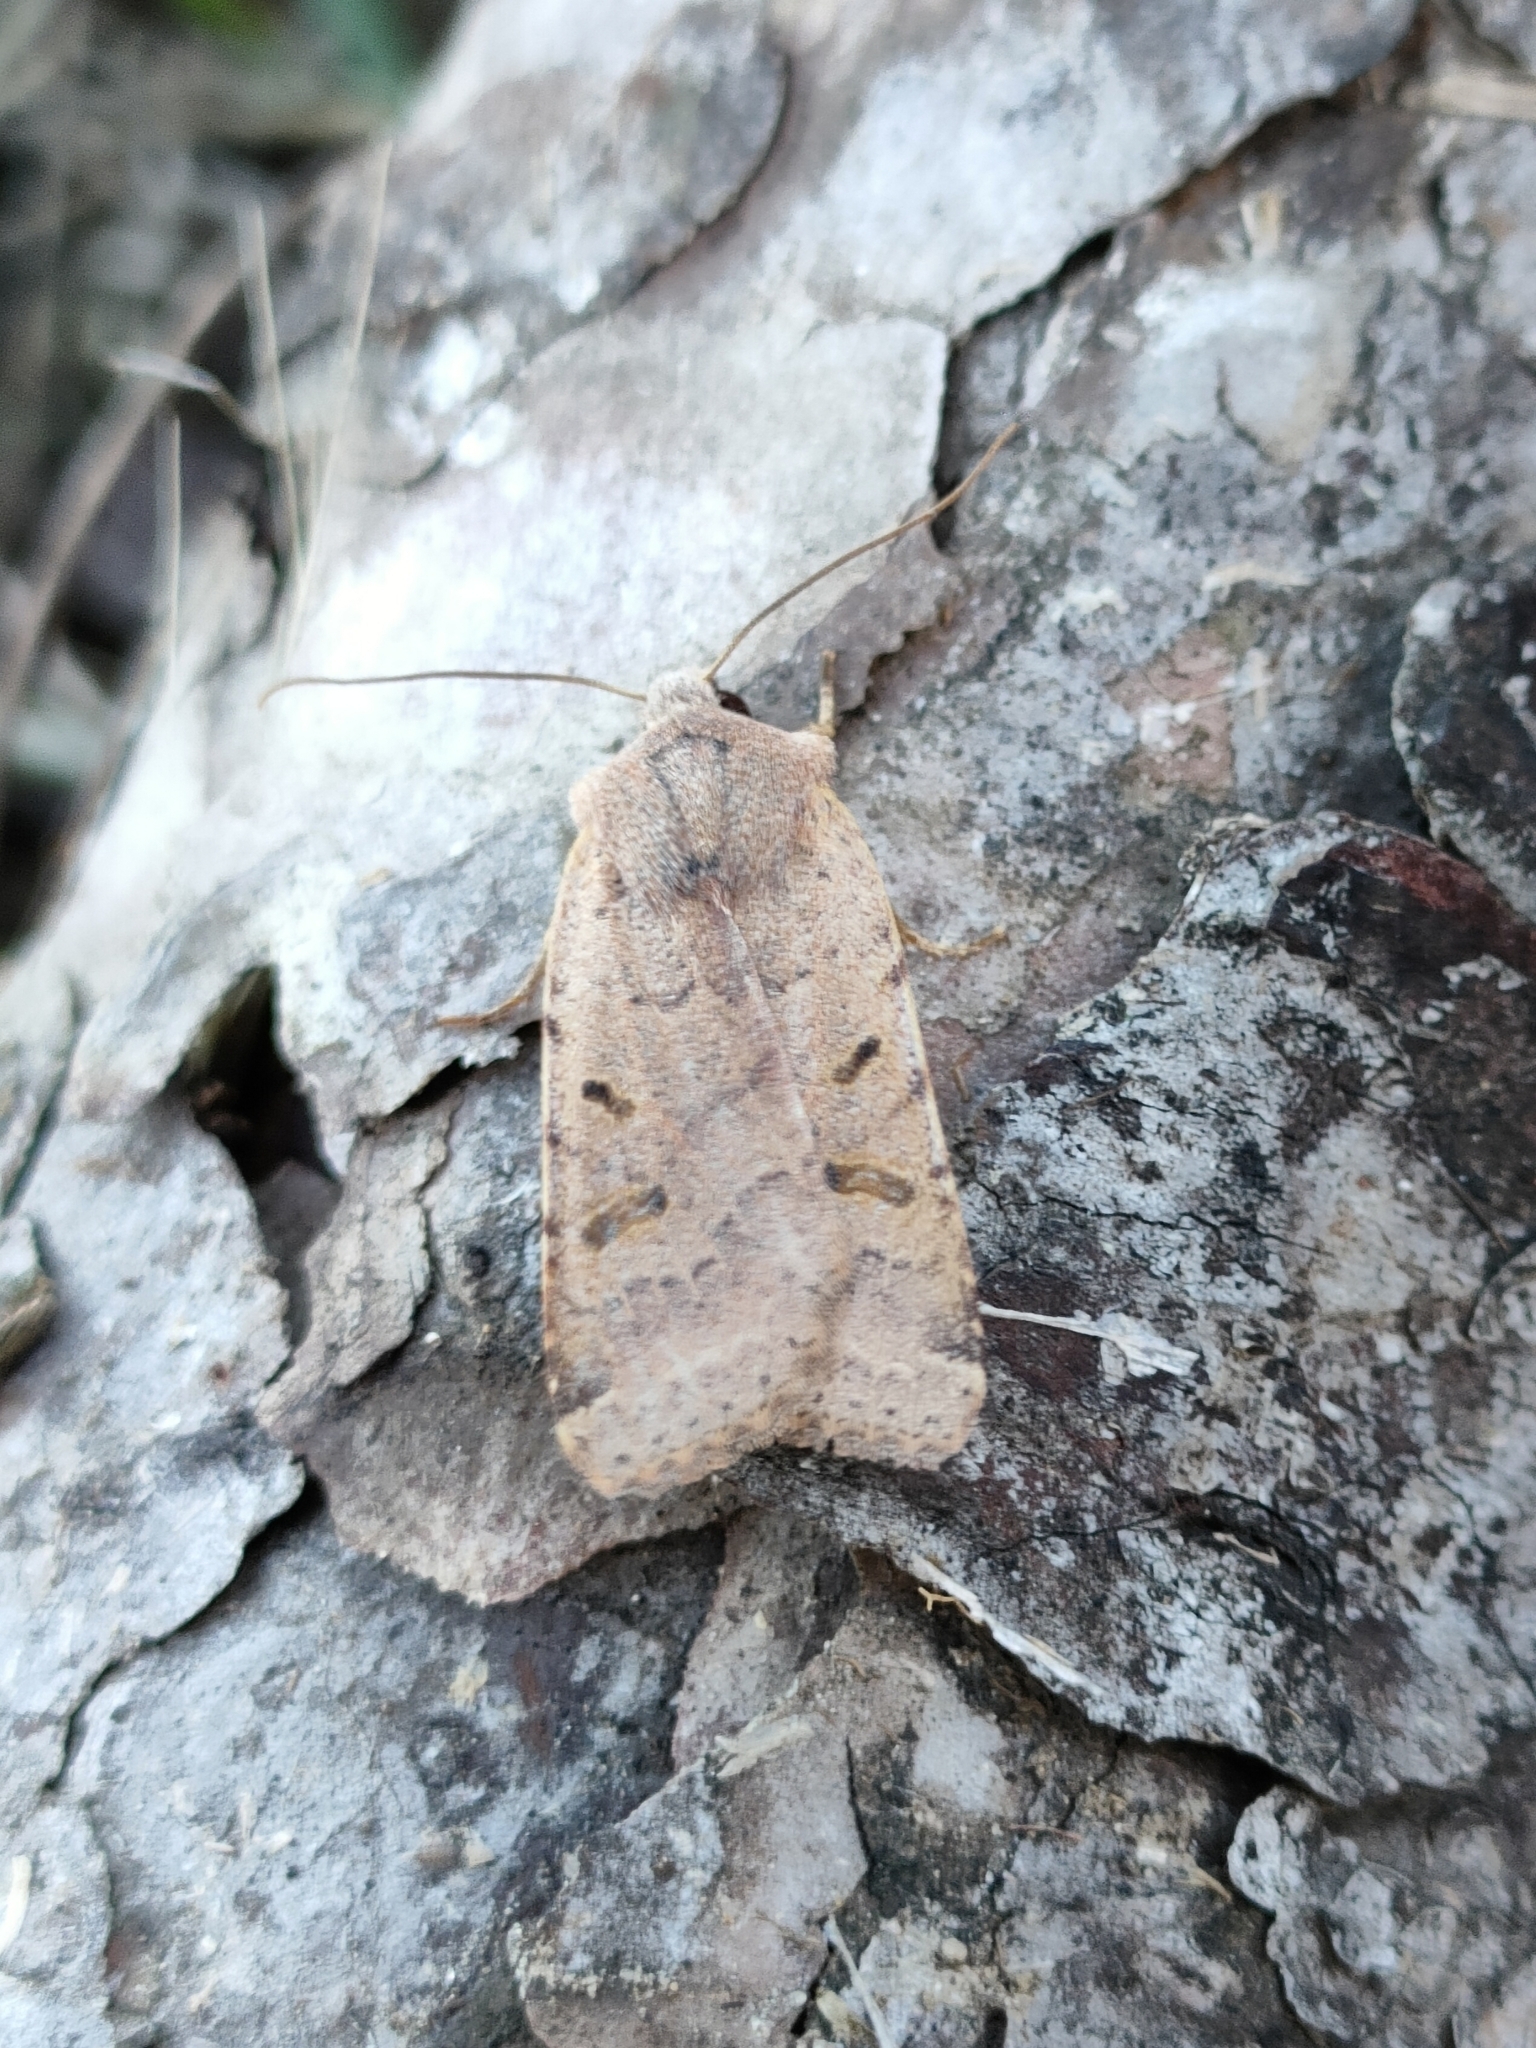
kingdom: Animalia
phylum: Arthropoda
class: Insecta
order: Lepidoptera
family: Noctuidae
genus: Agrochola
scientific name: Agrochola lychnidis
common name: Beaded chestnut
